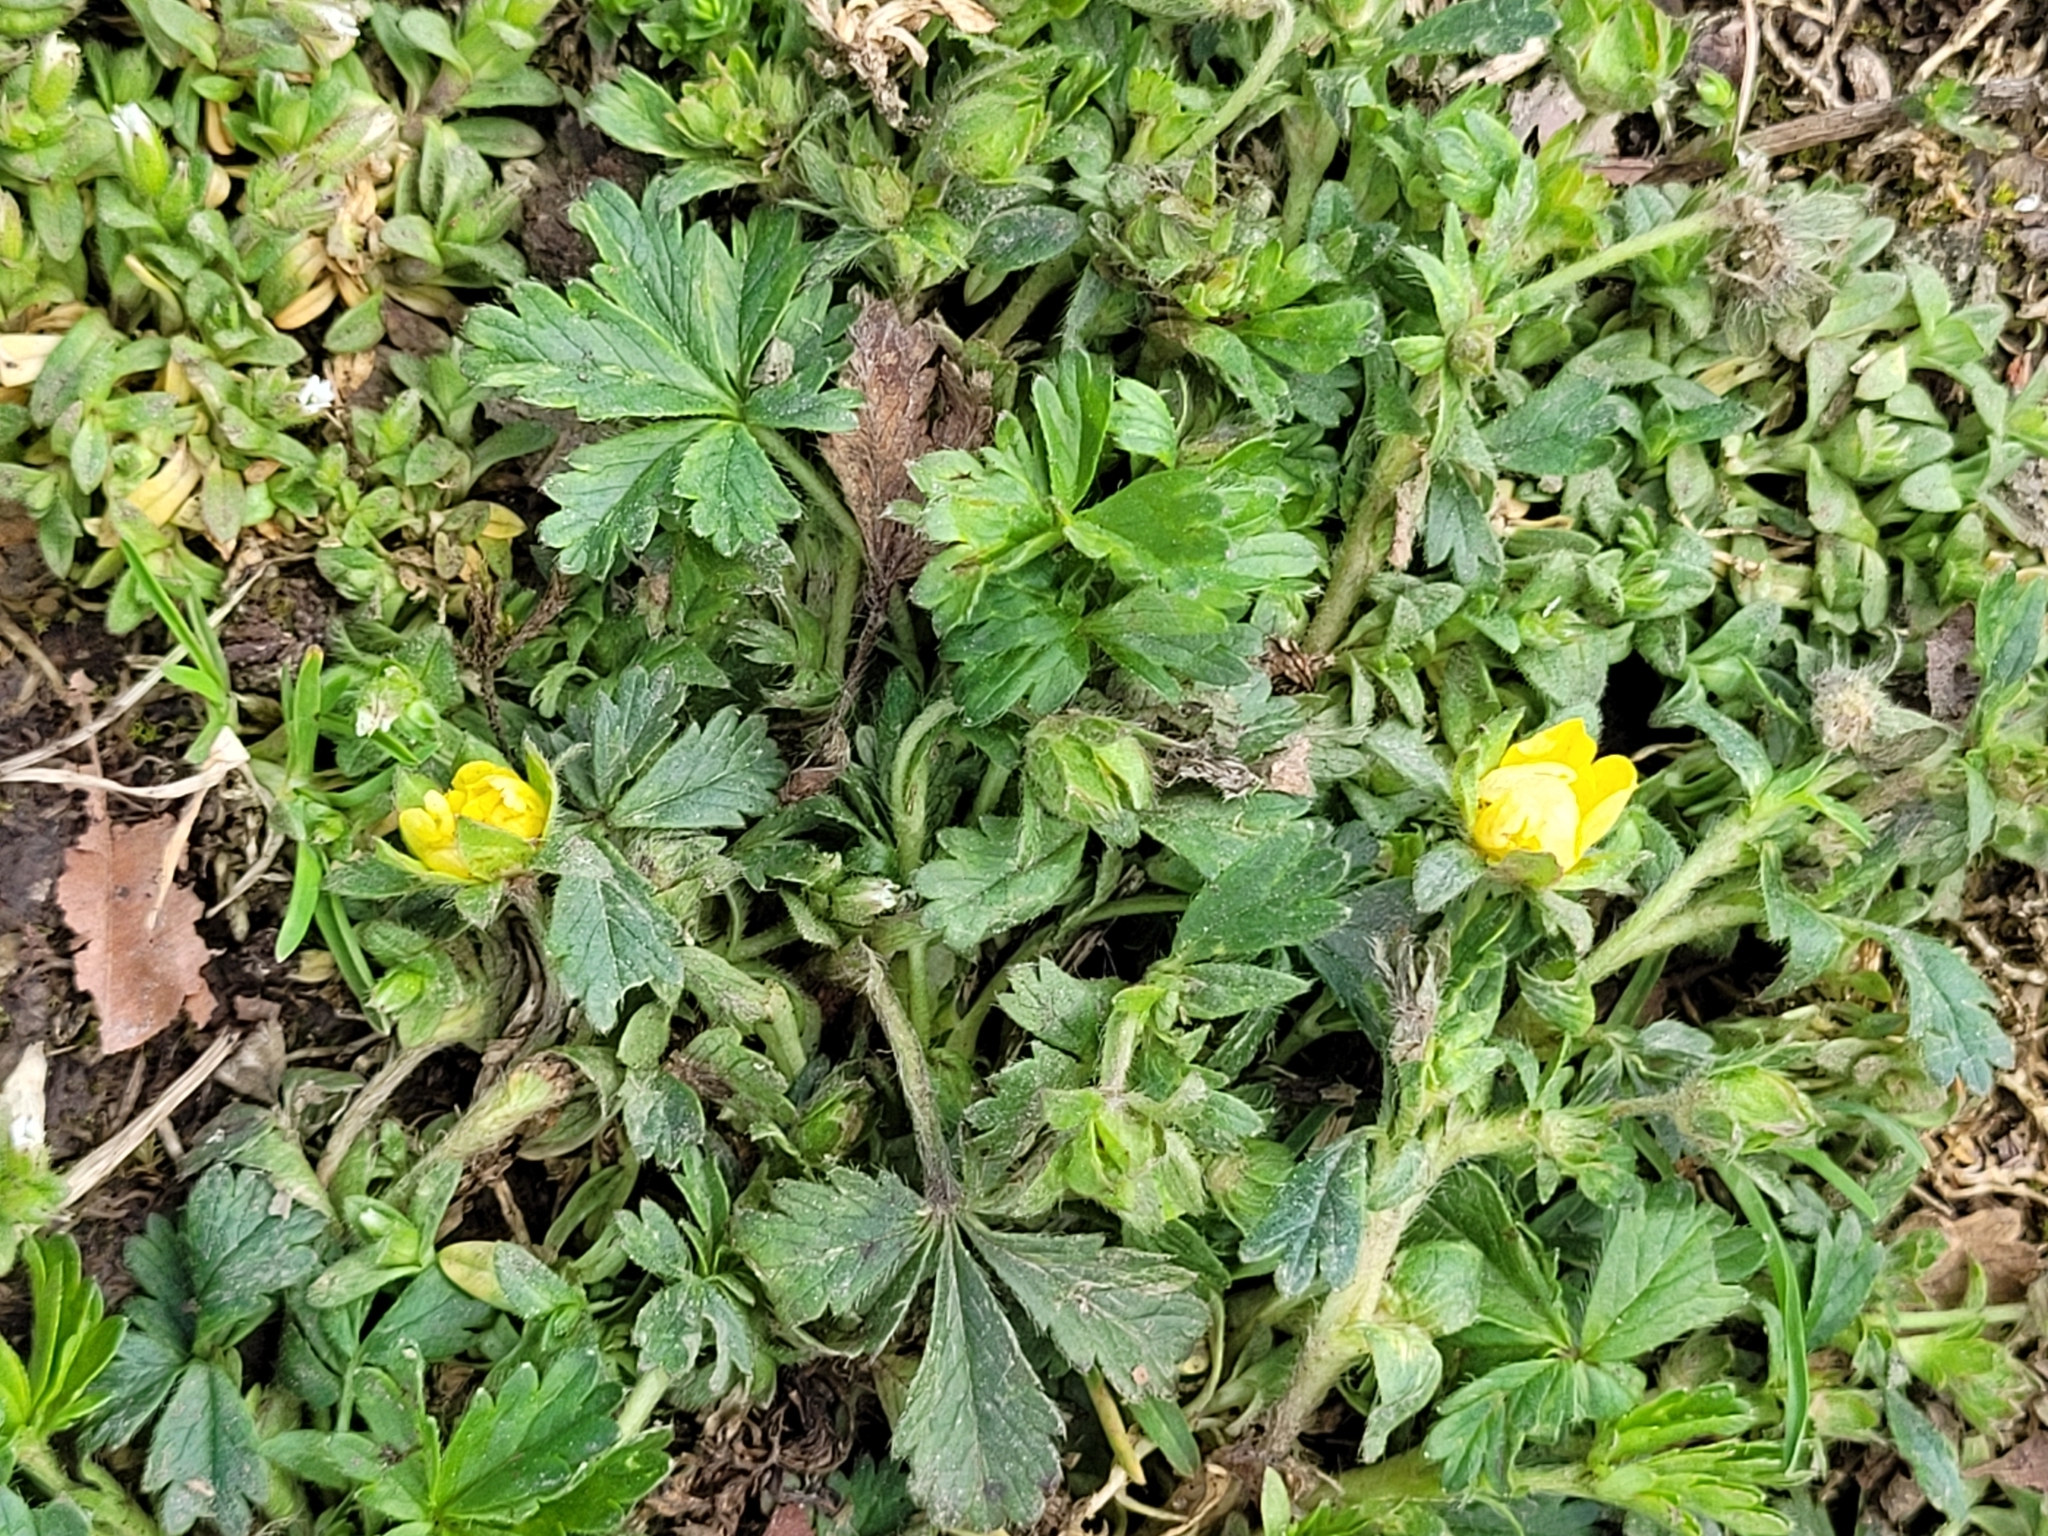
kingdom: Plantae
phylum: Tracheophyta
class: Magnoliopsida
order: Rosales
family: Rosaceae
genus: Potentilla
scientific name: Potentilla verna
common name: Spring cinquefoil
